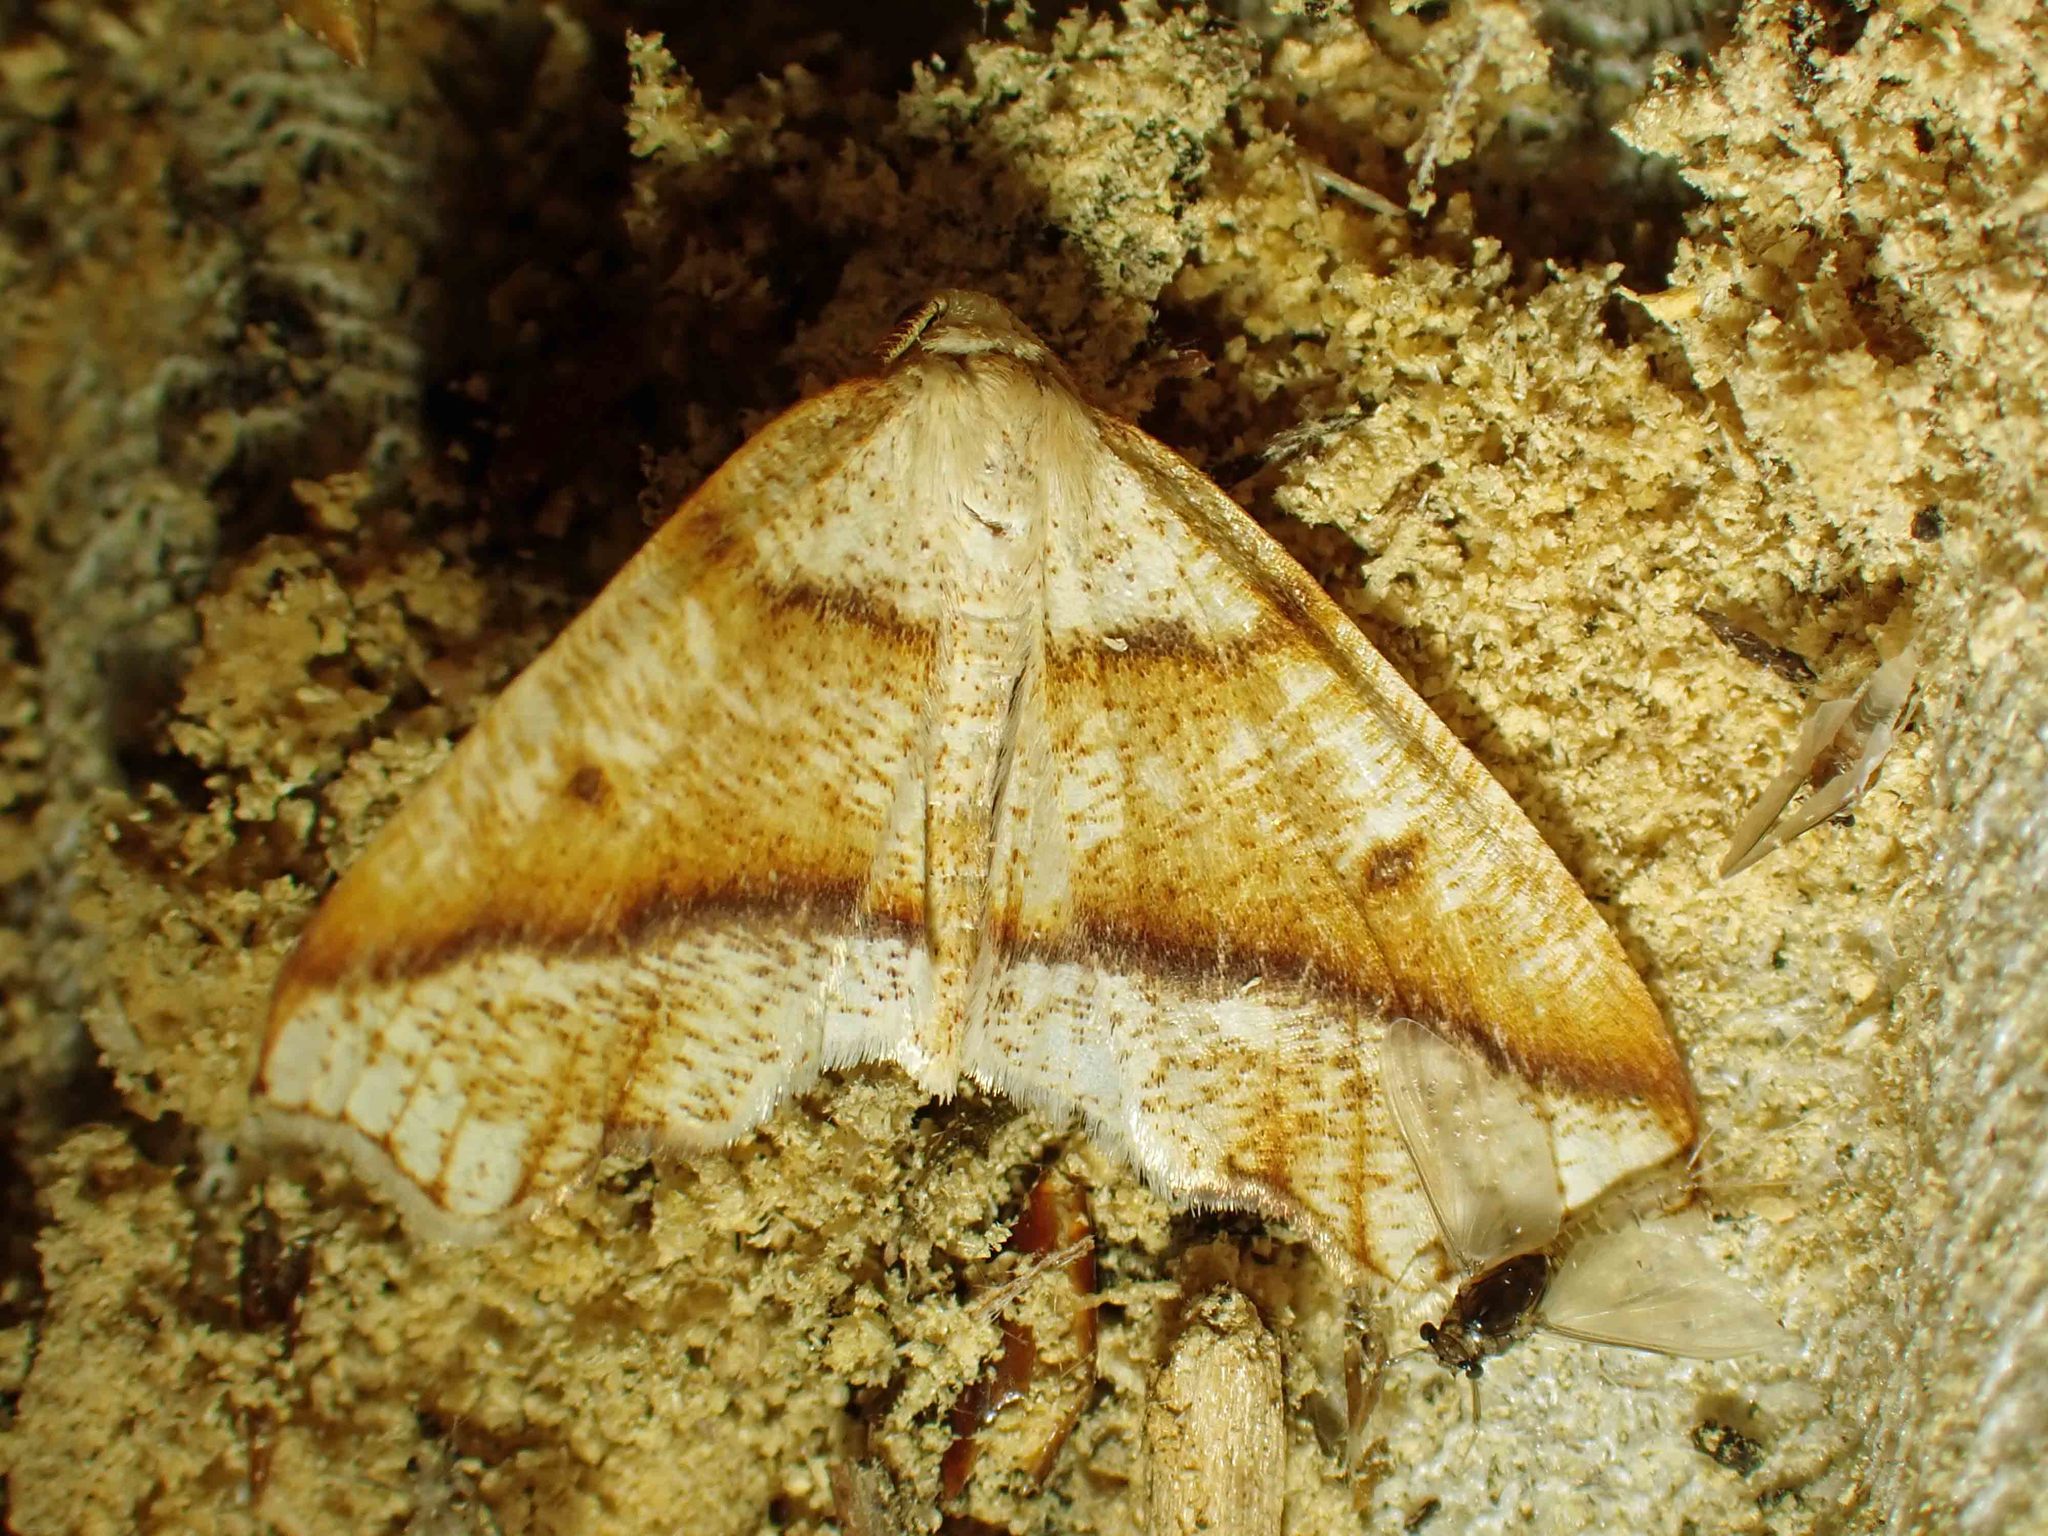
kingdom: Animalia
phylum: Arthropoda
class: Insecta
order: Lepidoptera
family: Geometridae
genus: Plagodis
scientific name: Plagodis alcoolaria
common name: Hollow-spotted plagodis
